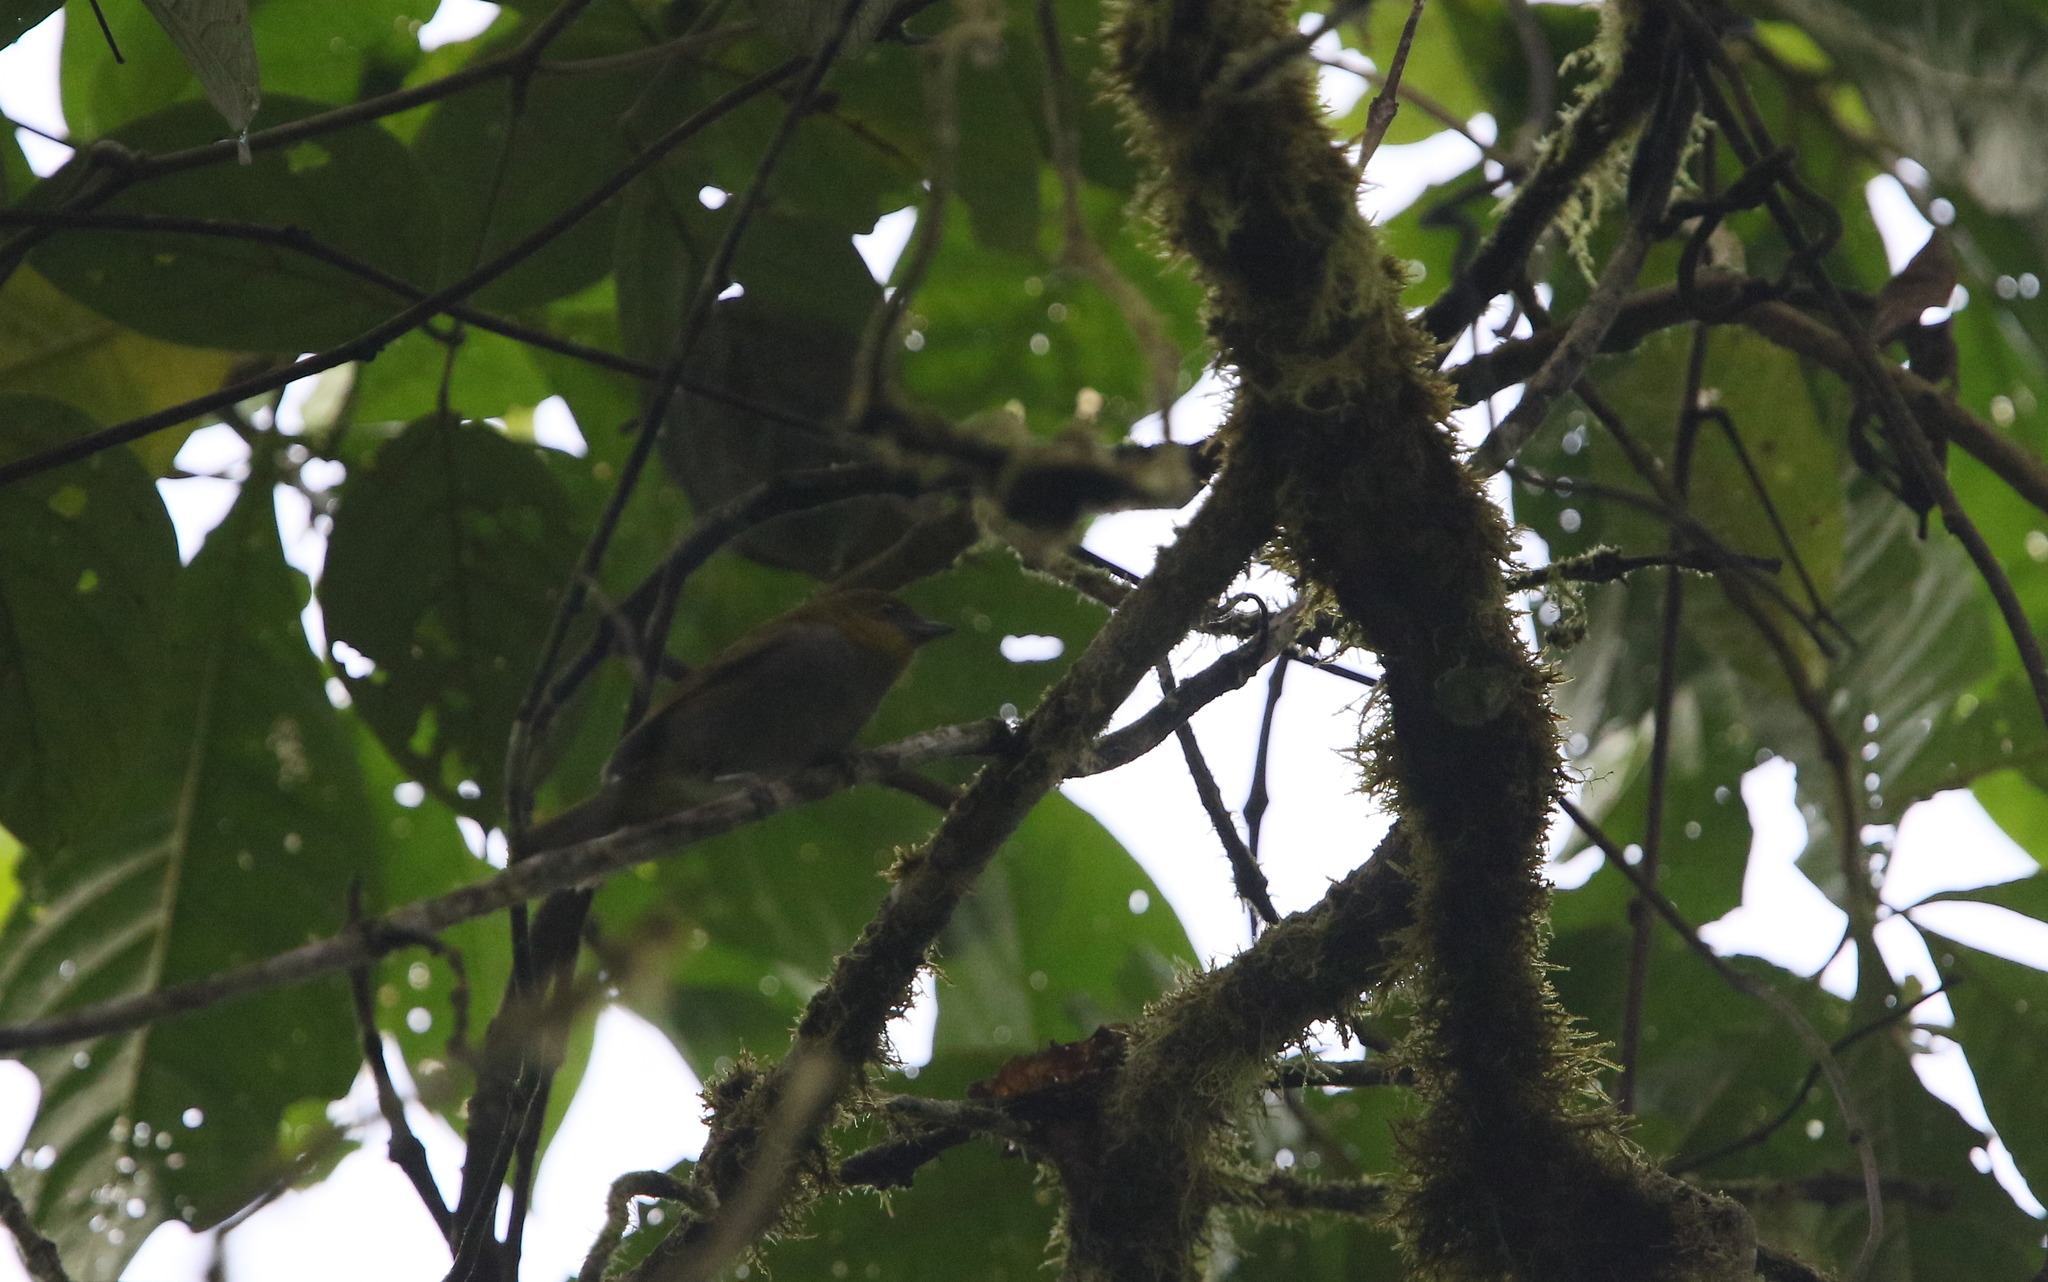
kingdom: Animalia
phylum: Chordata
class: Aves
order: Passeriformes
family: Passerellidae
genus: Chlorospingus
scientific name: Chlorospingus flavigularis
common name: Yellow-throated bush-tanager
